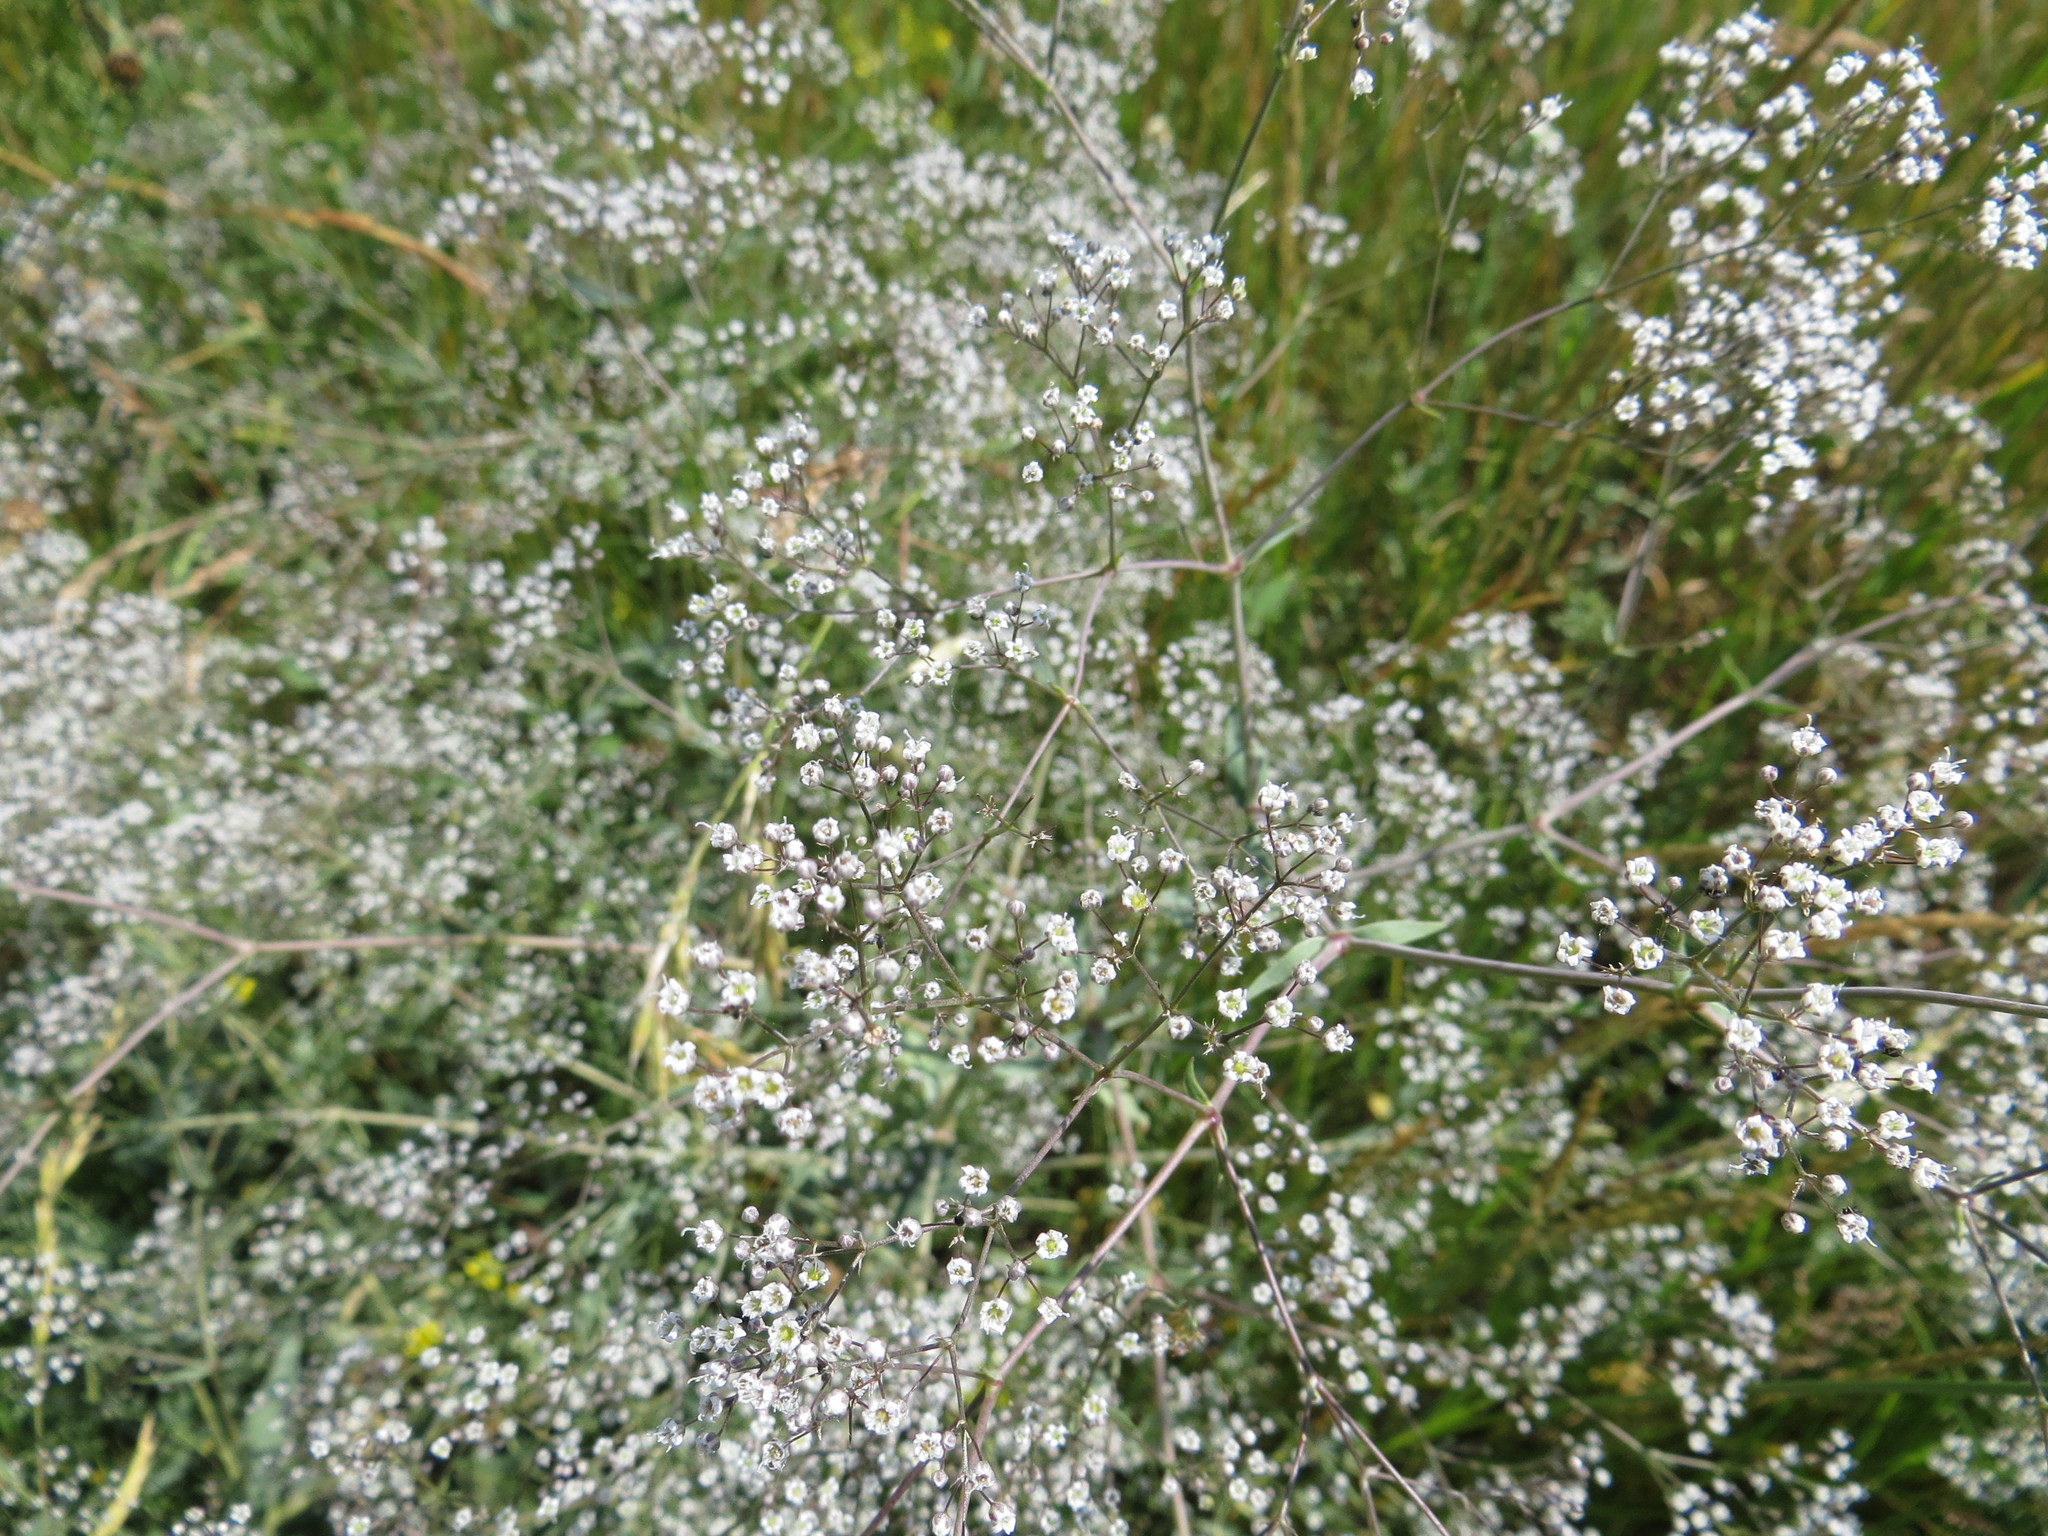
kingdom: Plantae
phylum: Tracheophyta
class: Magnoliopsida
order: Caryophyllales
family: Caryophyllaceae
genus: Gypsophila
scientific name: Gypsophila paniculata
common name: Baby's-breath
